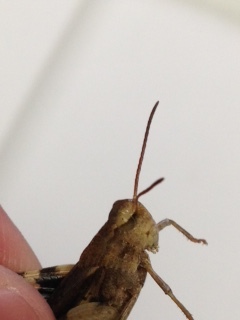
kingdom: Animalia
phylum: Arthropoda
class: Insecta
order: Orthoptera
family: Acrididae
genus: Chortophaga
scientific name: Chortophaga viridifasciata
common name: Green-striped grasshopper
